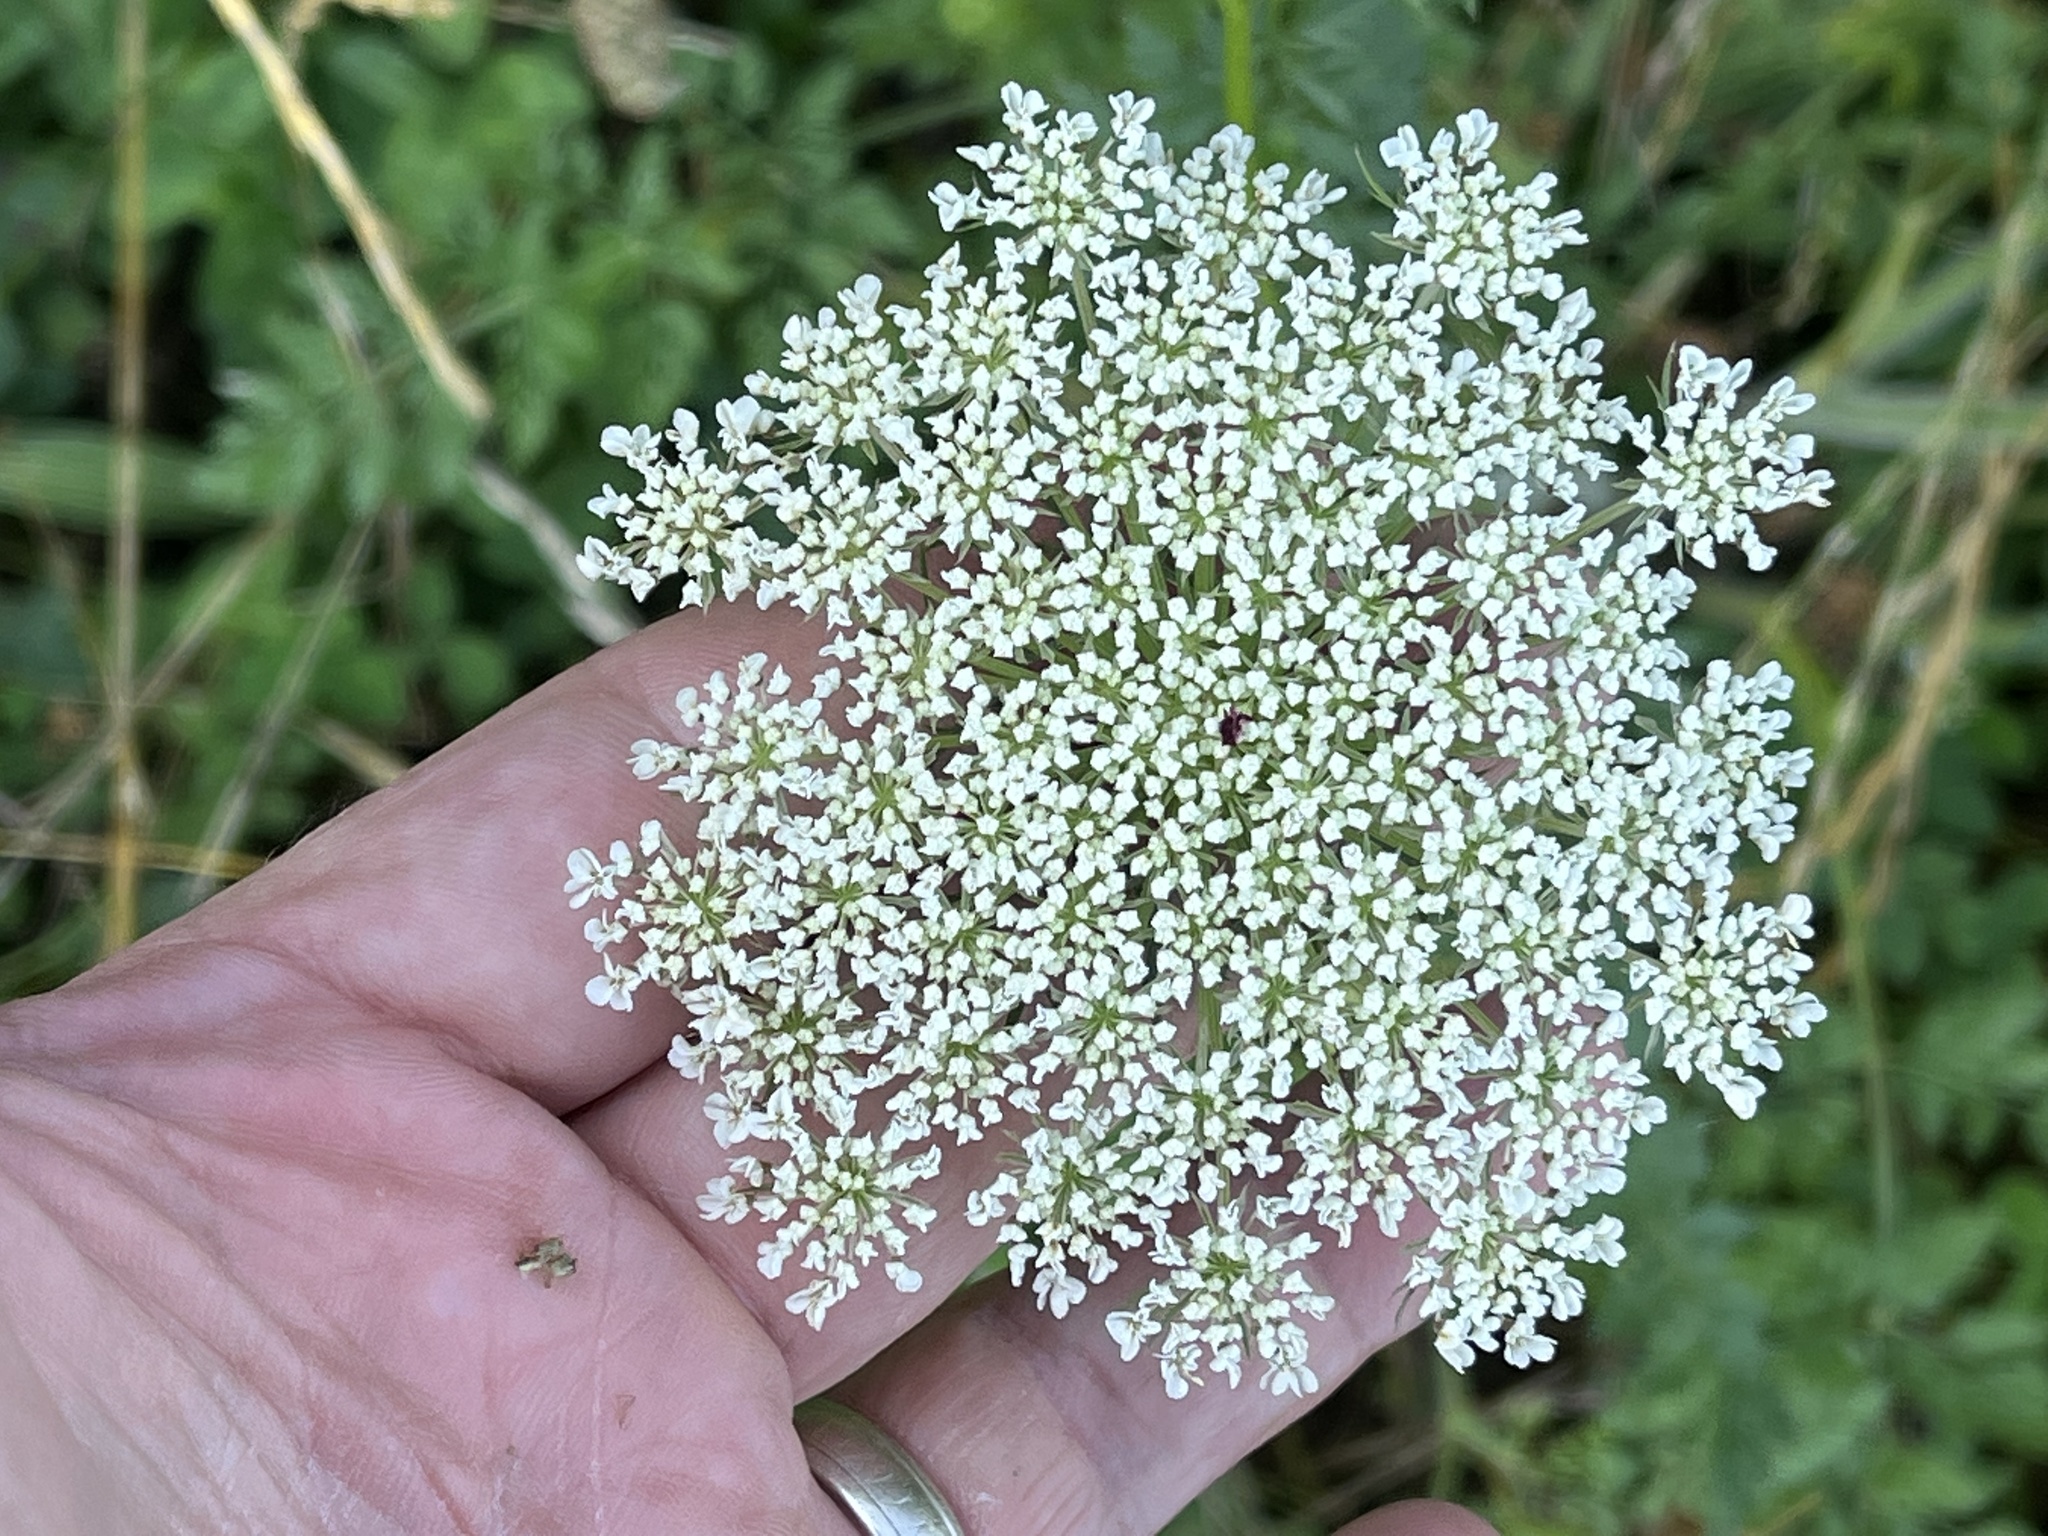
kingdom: Plantae
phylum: Tracheophyta
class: Magnoliopsida
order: Apiales
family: Apiaceae
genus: Daucus
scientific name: Daucus carota
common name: Wild carrot
